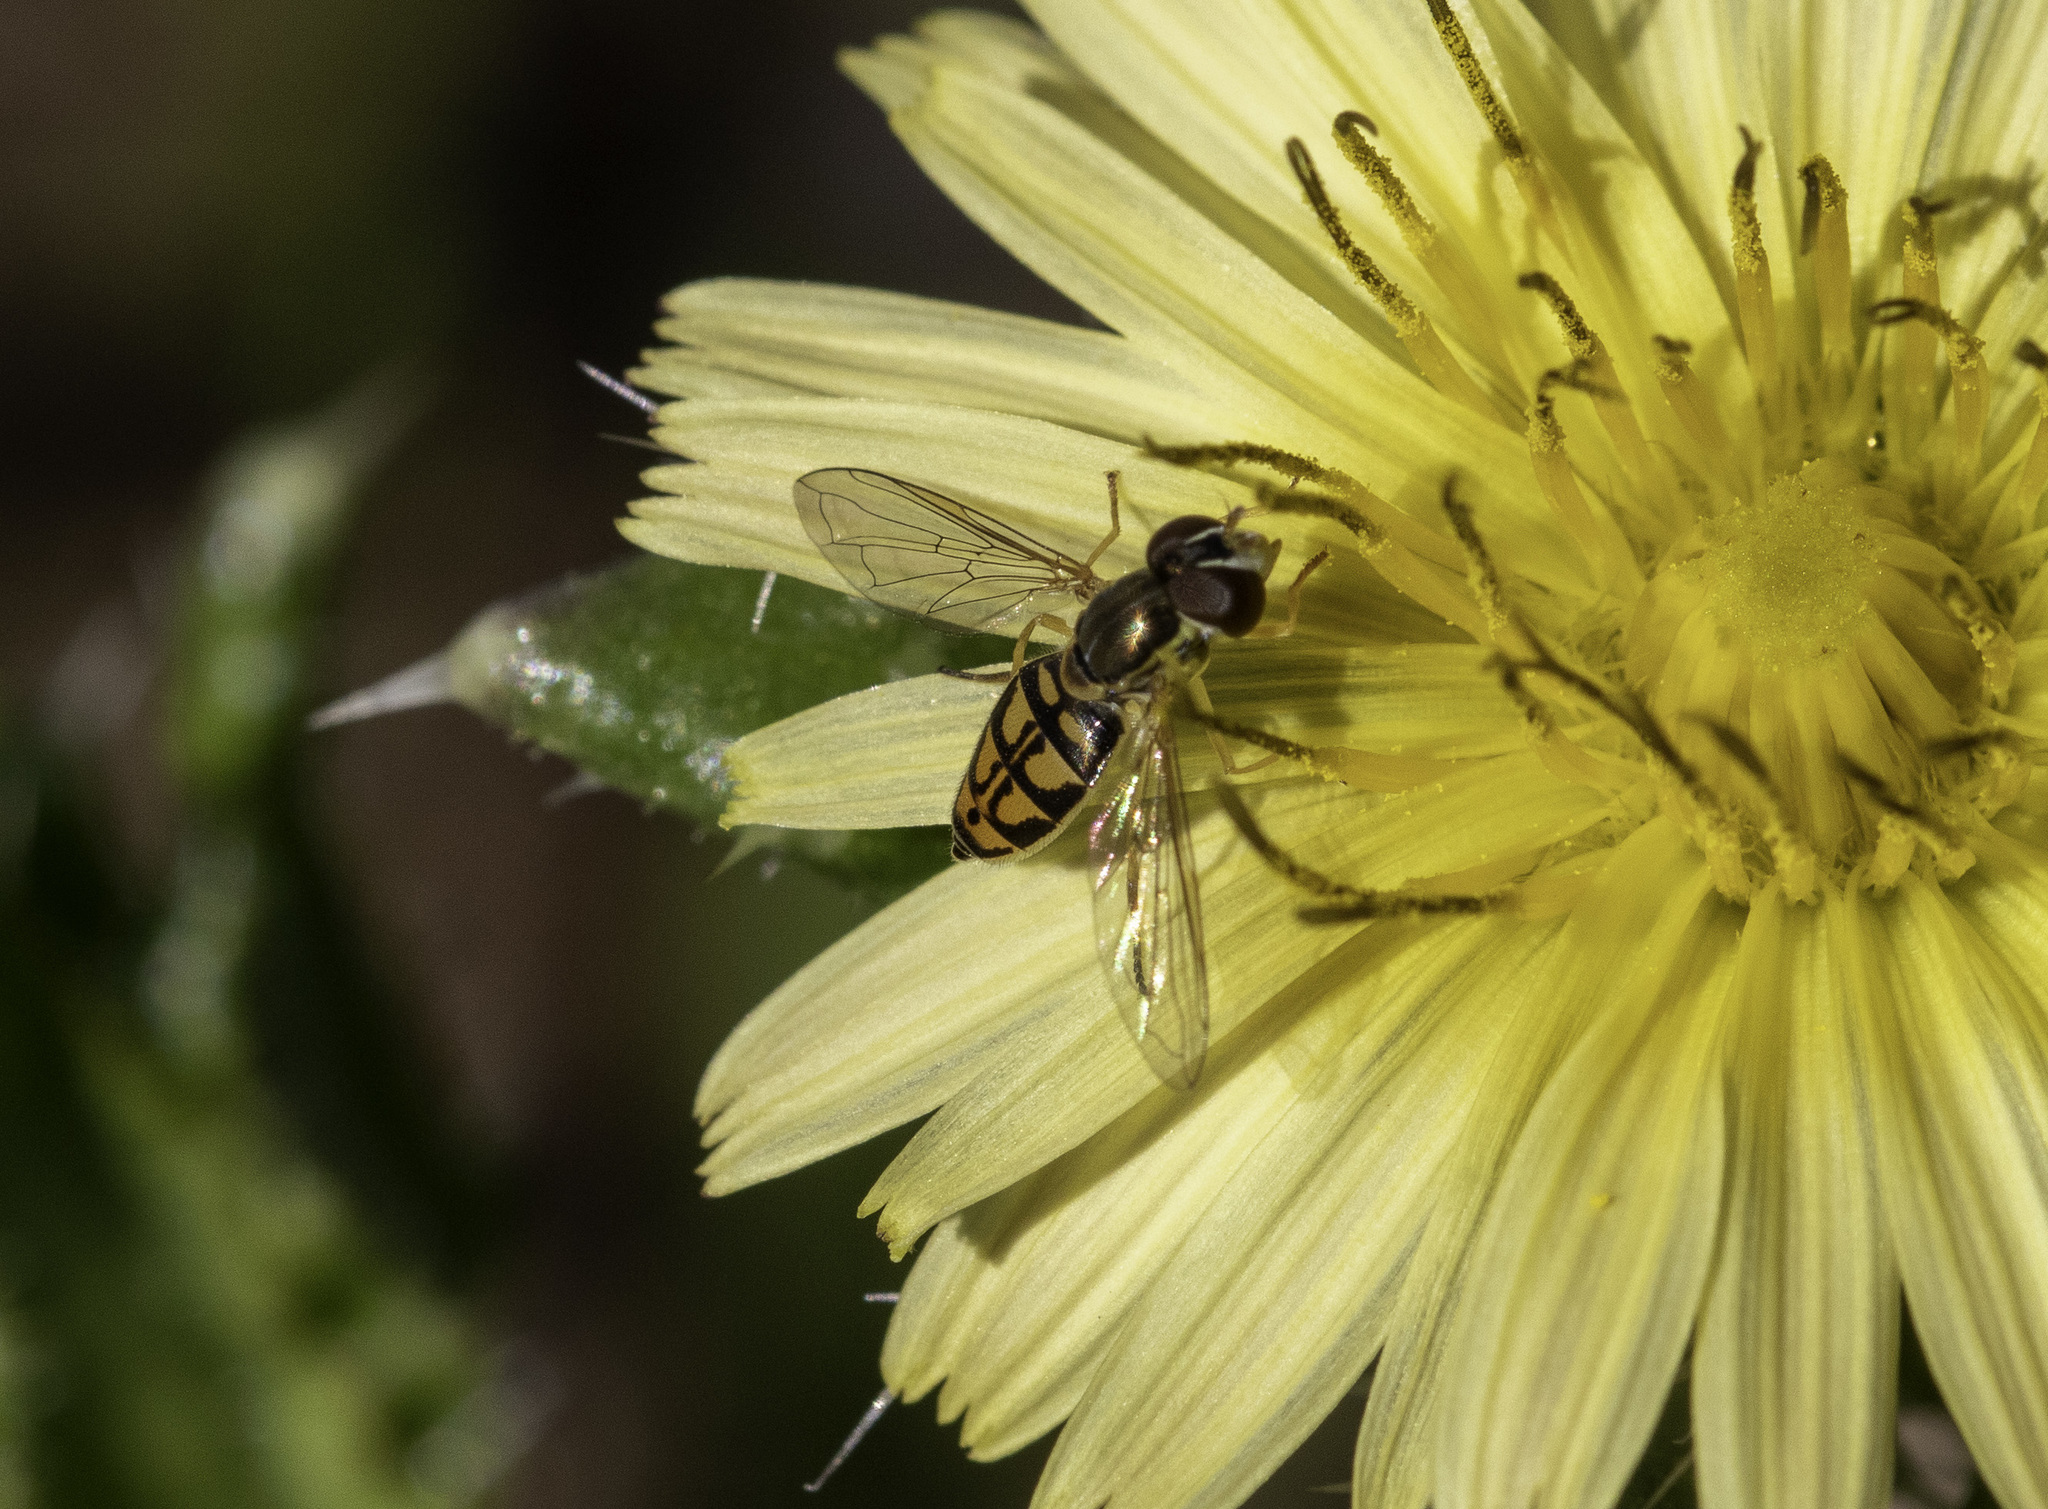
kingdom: Animalia
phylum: Arthropoda
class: Insecta
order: Diptera
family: Syrphidae
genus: Toxomerus
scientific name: Toxomerus marginatus
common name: Syrphid fly
